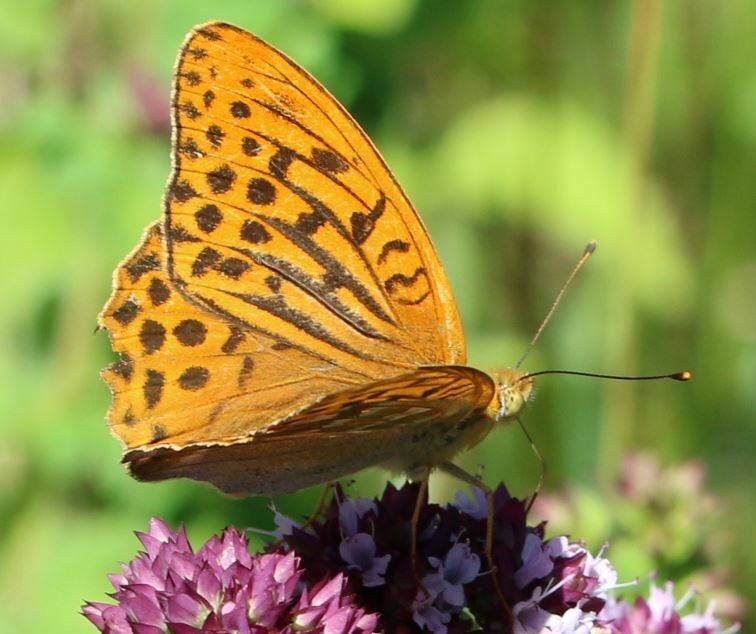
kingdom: Animalia
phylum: Arthropoda
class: Insecta
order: Lepidoptera
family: Nymphalidae
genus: Argynnis
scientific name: Argynnis paphia
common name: Silver-washed fritillary
